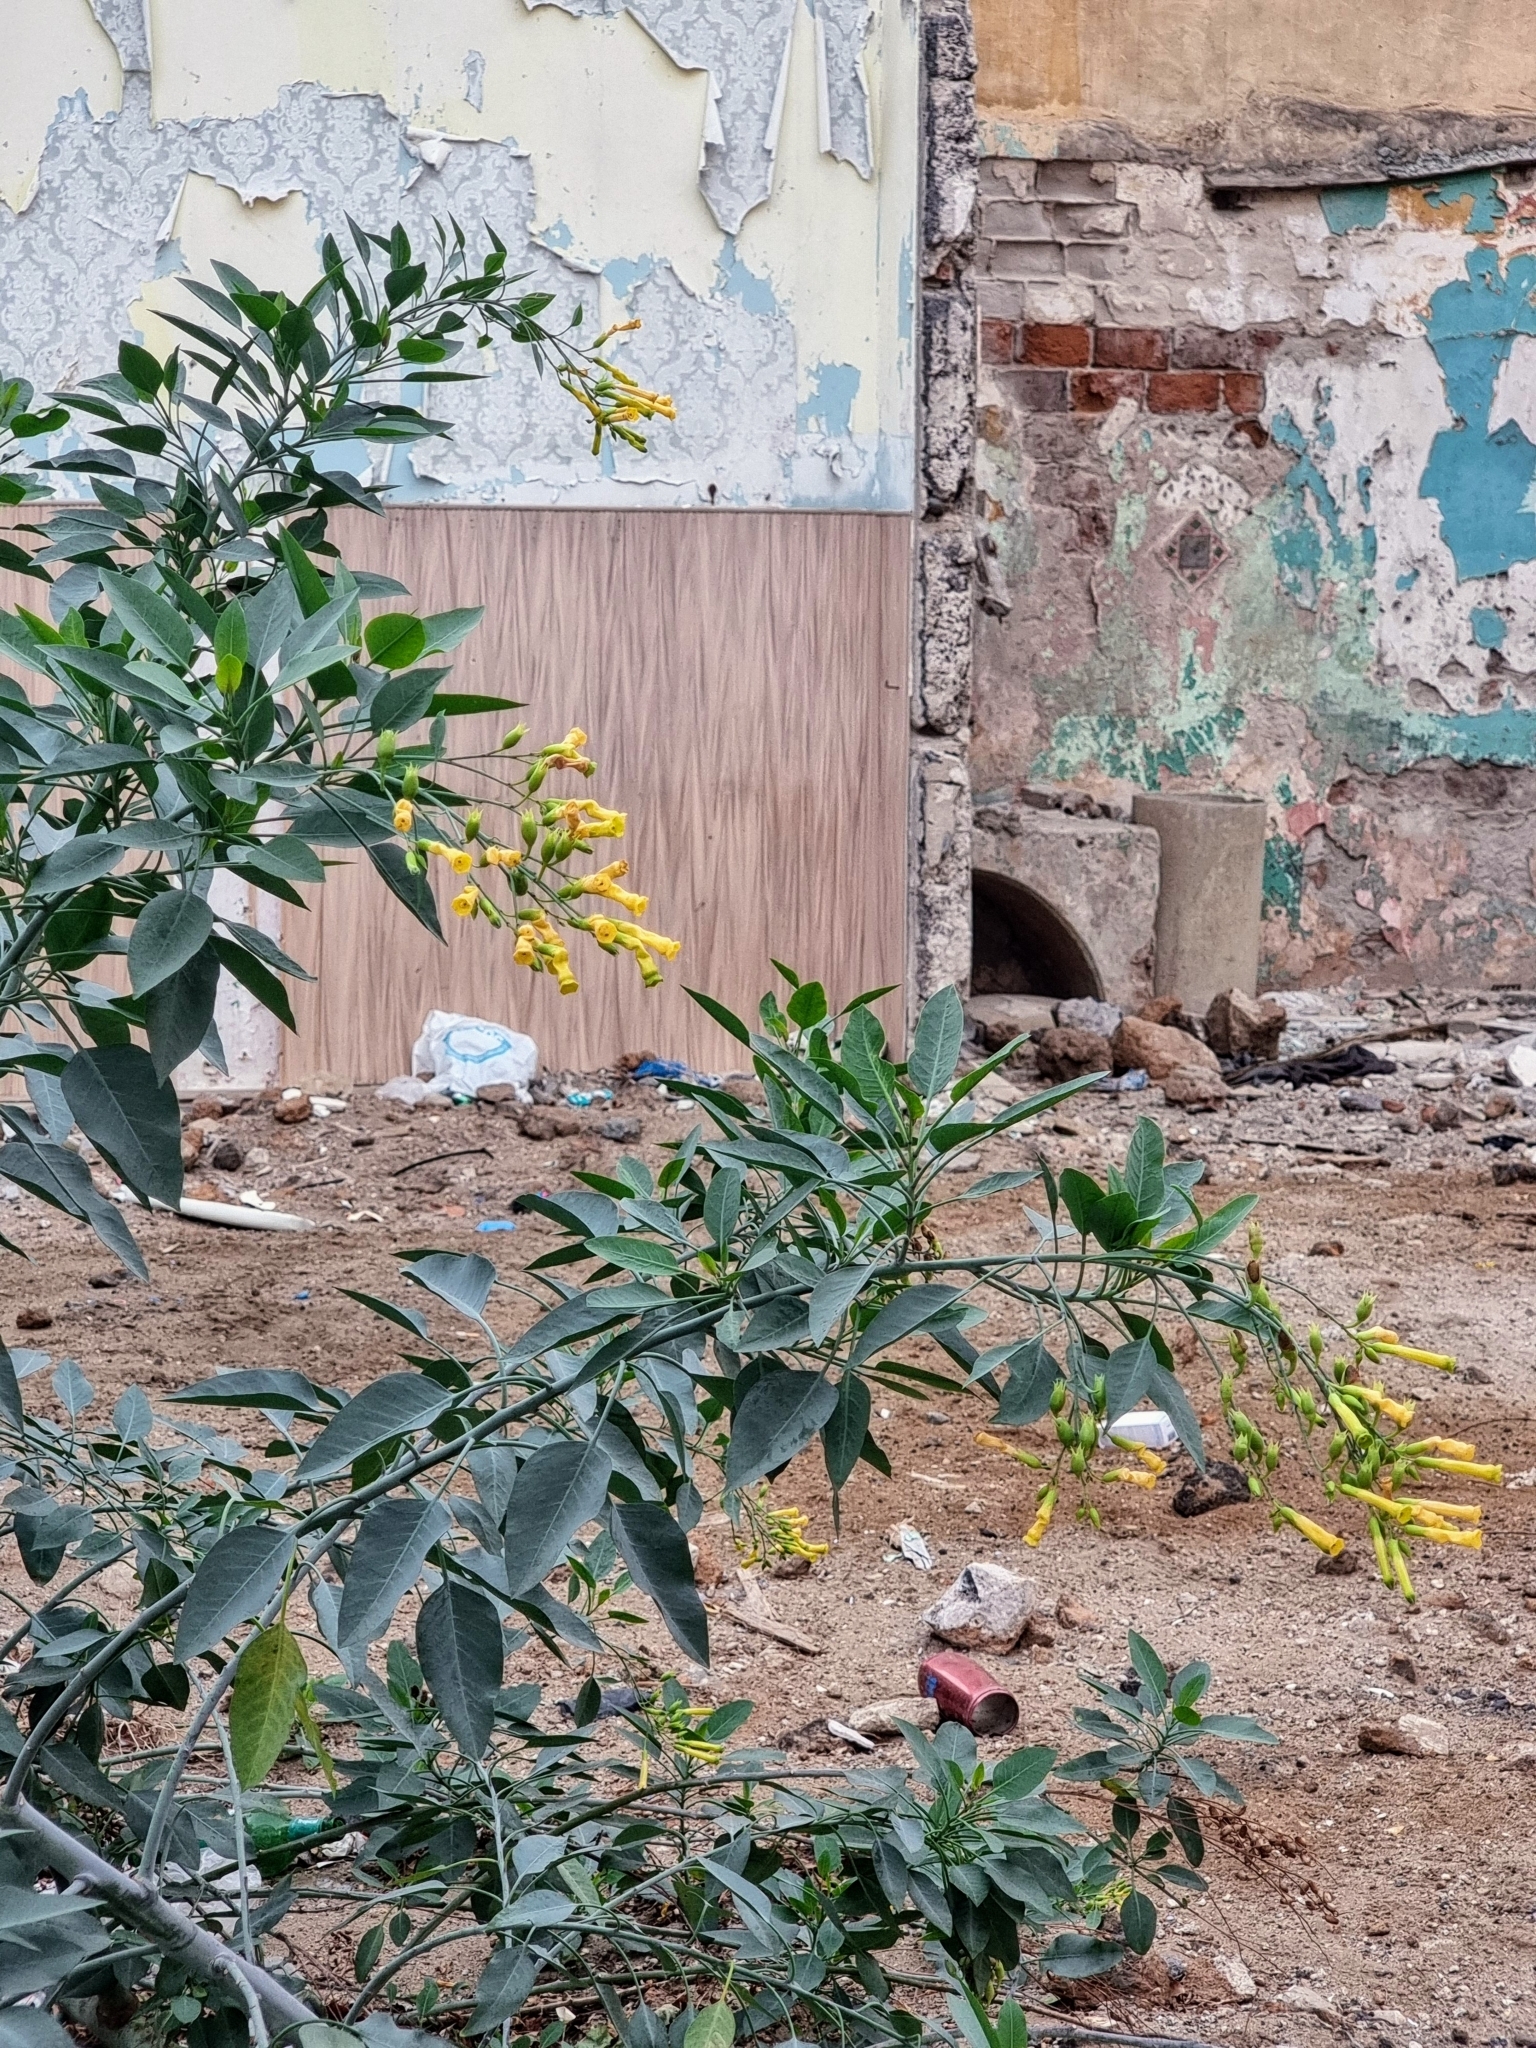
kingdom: Plantae
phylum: Tracheophyta
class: Magnoliopsida
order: Solanales
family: Solanaceae
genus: Nicotiana
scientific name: Nicotiana glauca
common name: Tree tobacco
